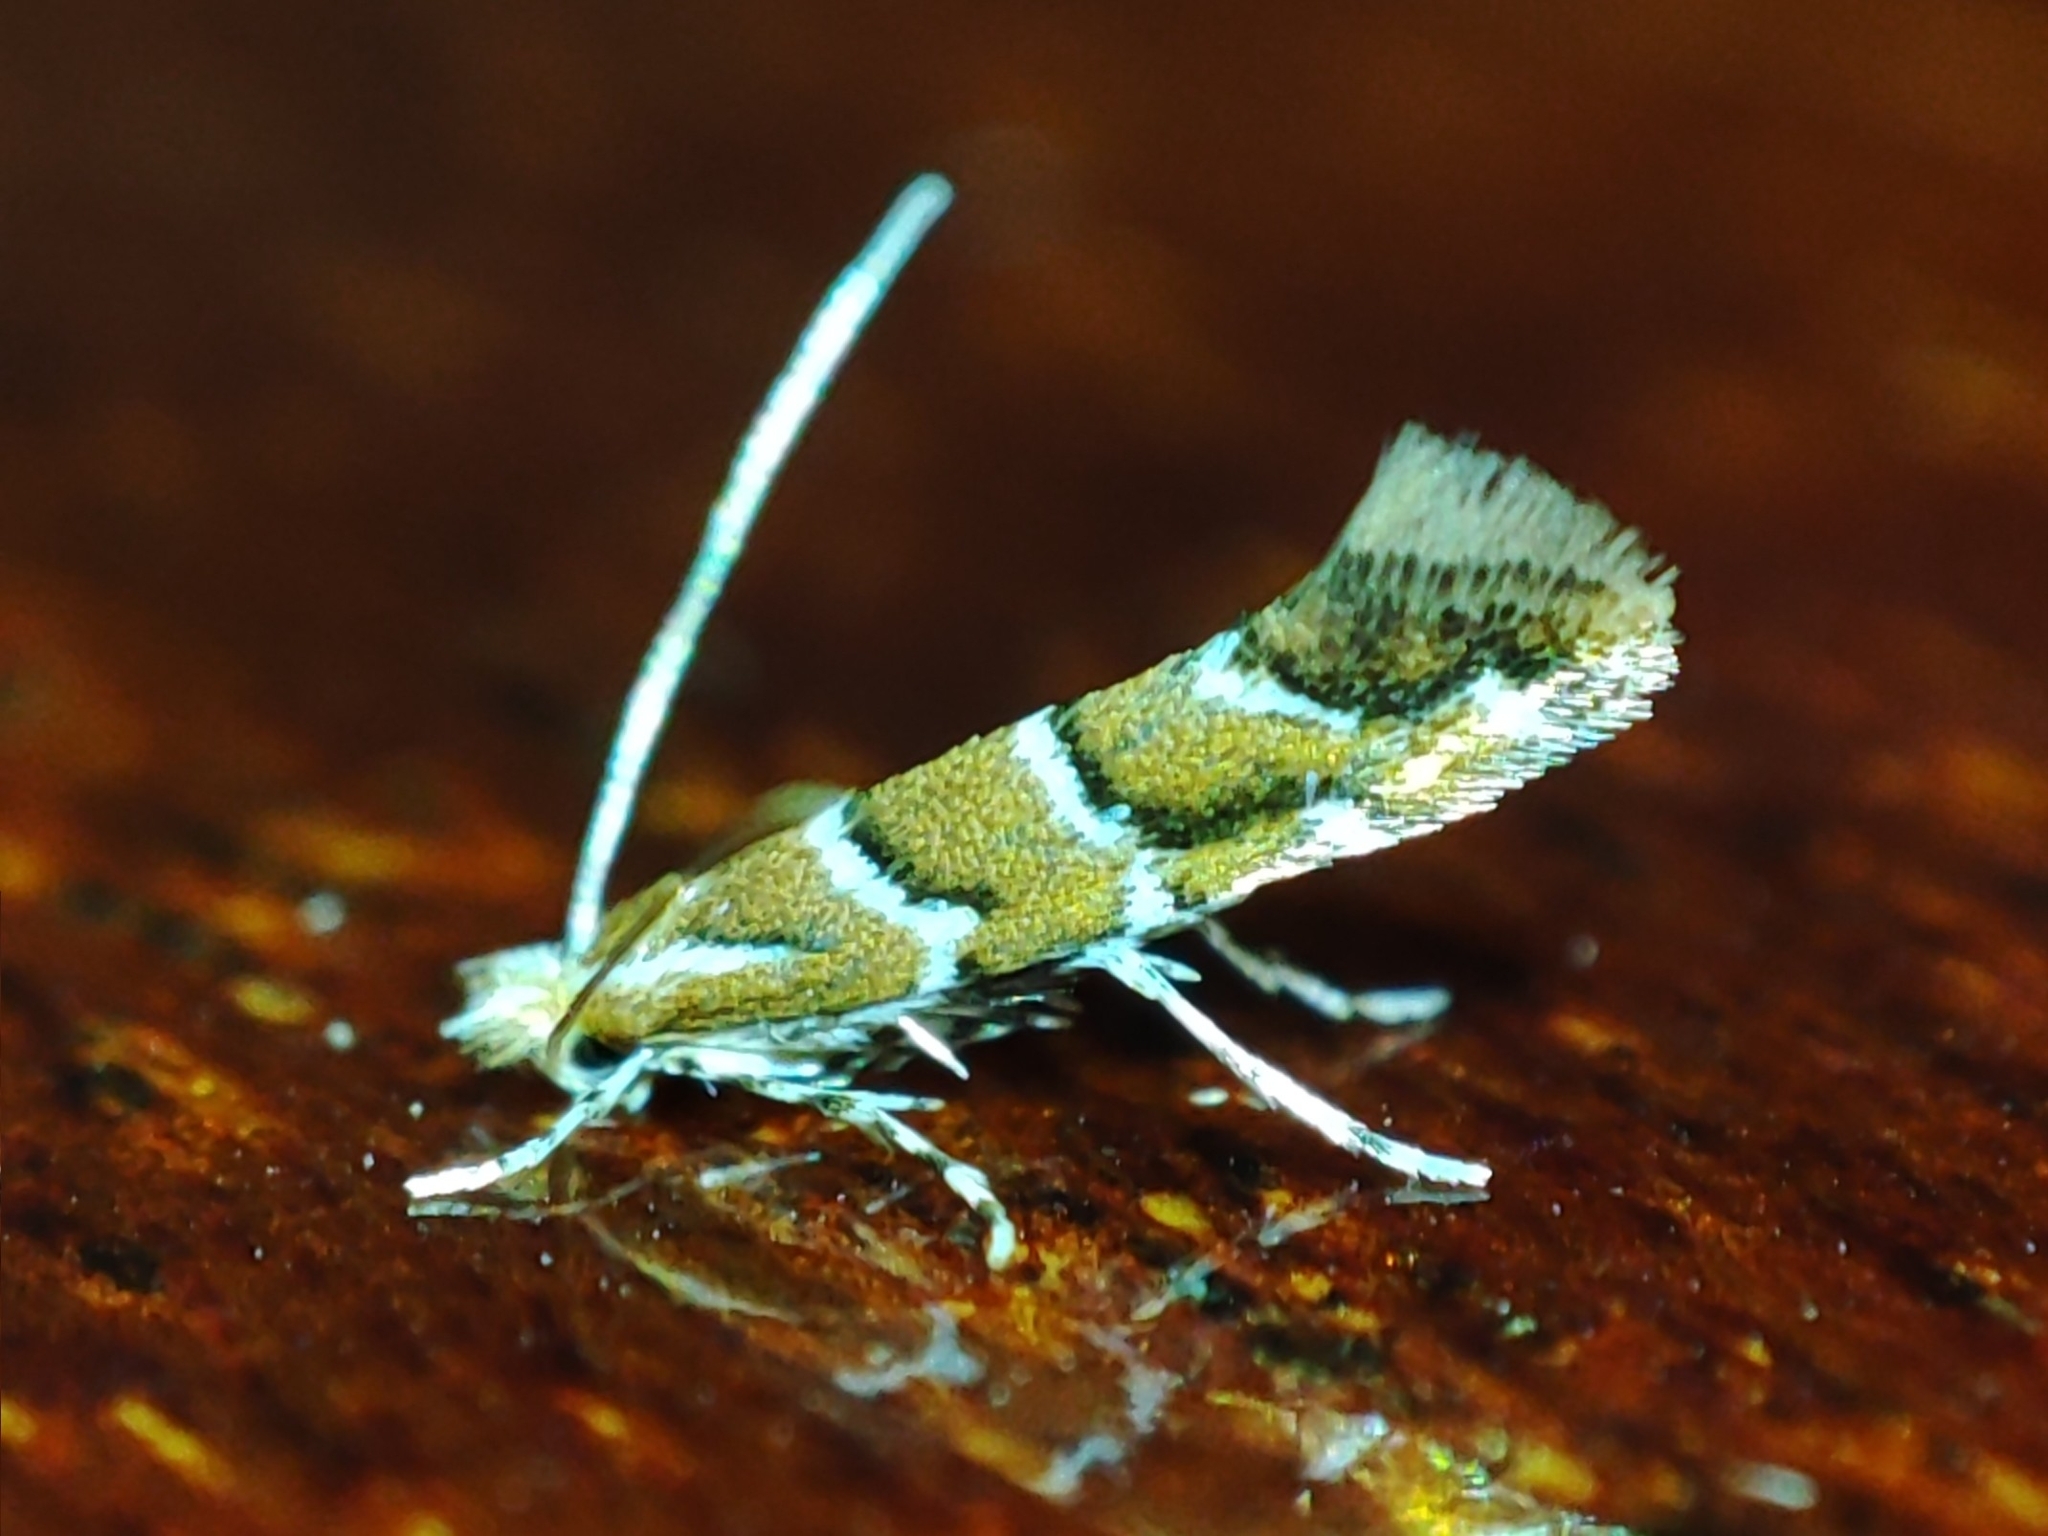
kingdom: Animalia
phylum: Arthropoda
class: Insecta
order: Lepidoptera
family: Gracillariidae
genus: Cameraria
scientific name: Cameraria ohridella
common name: Horse-chestnut leaf-miner
